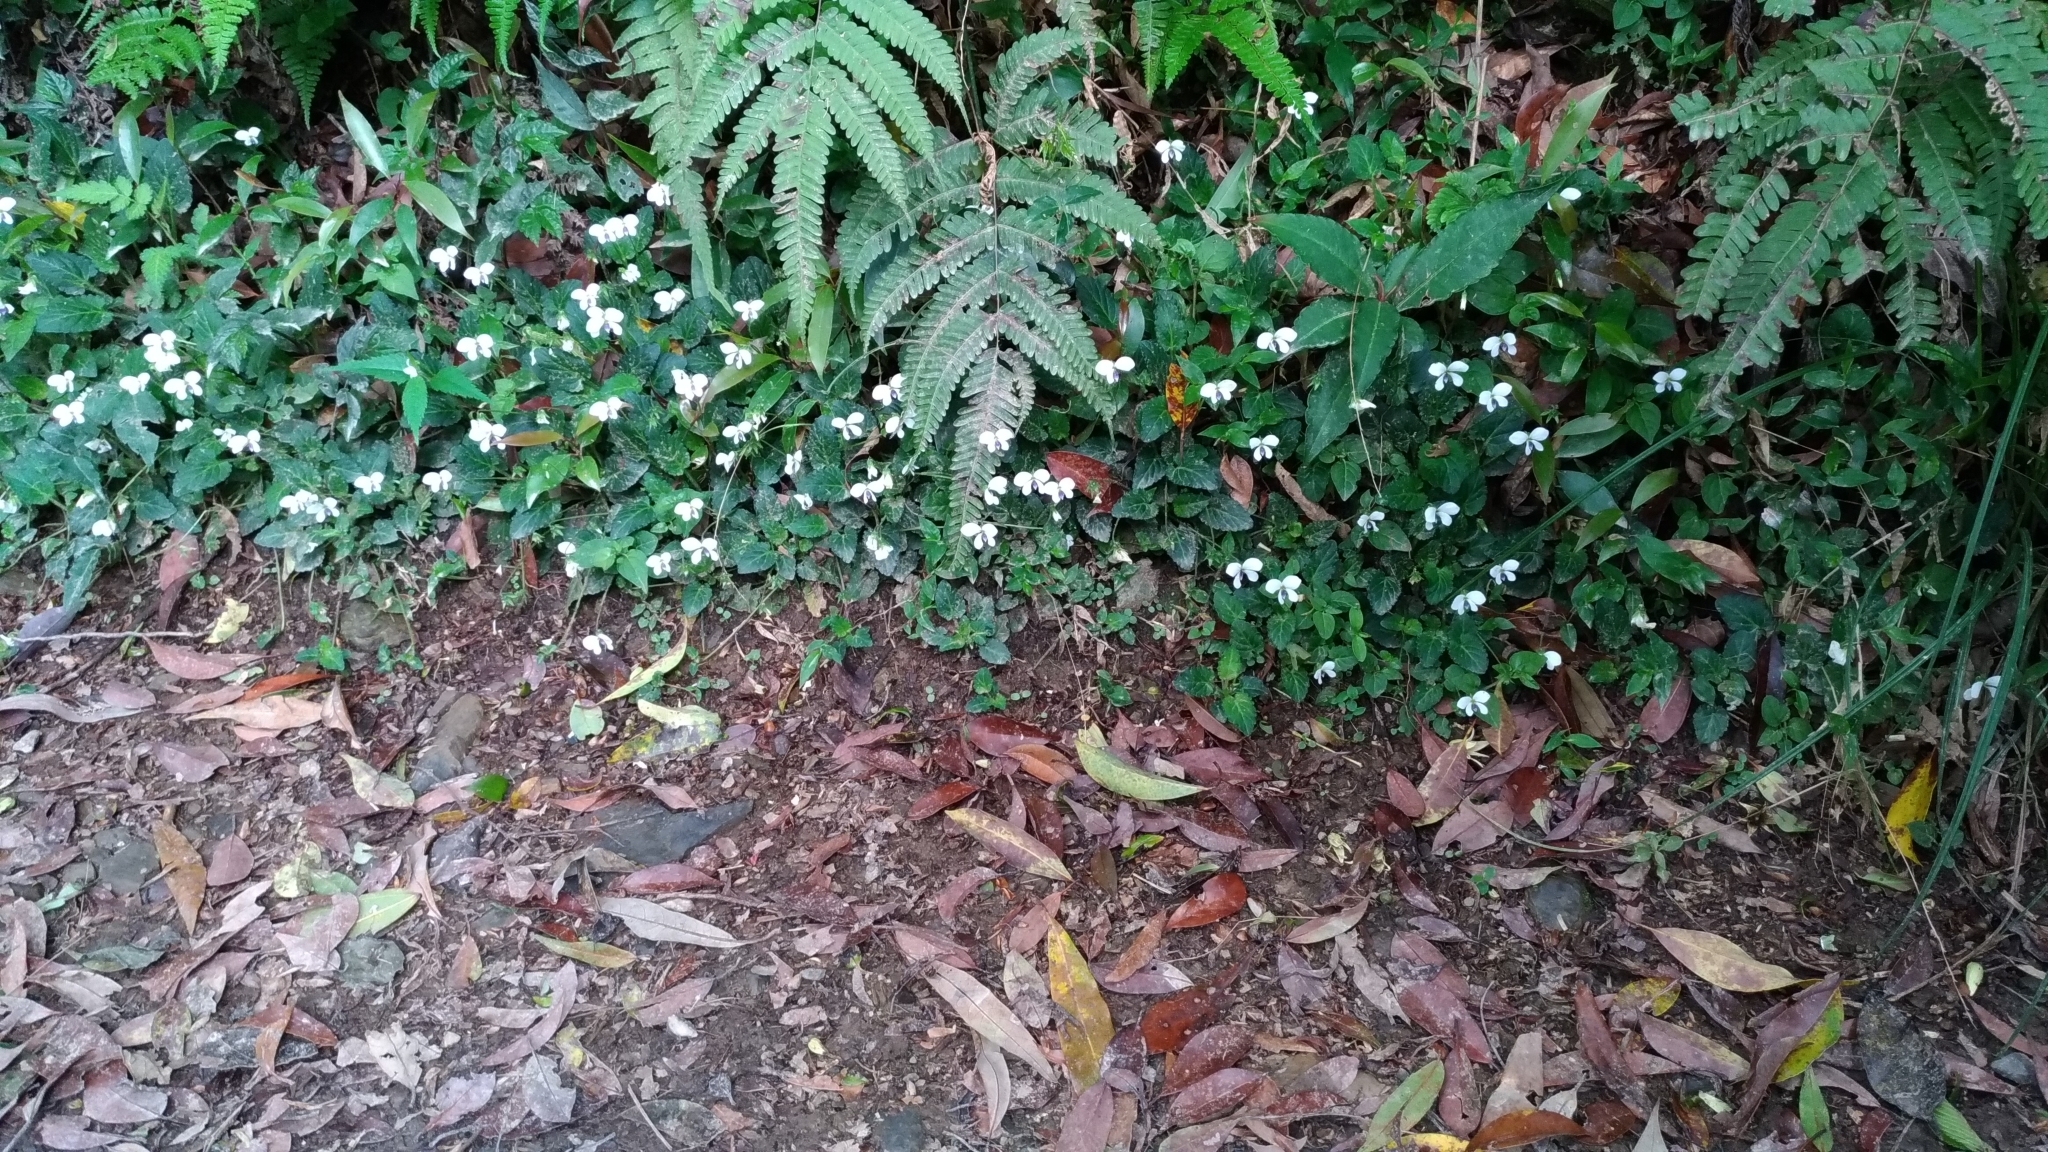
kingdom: Plantae
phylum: Tracheophyta
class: Magnoliopsida
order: Malpighiales
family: Violaceae
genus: Viola
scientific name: Viola nagasawae
